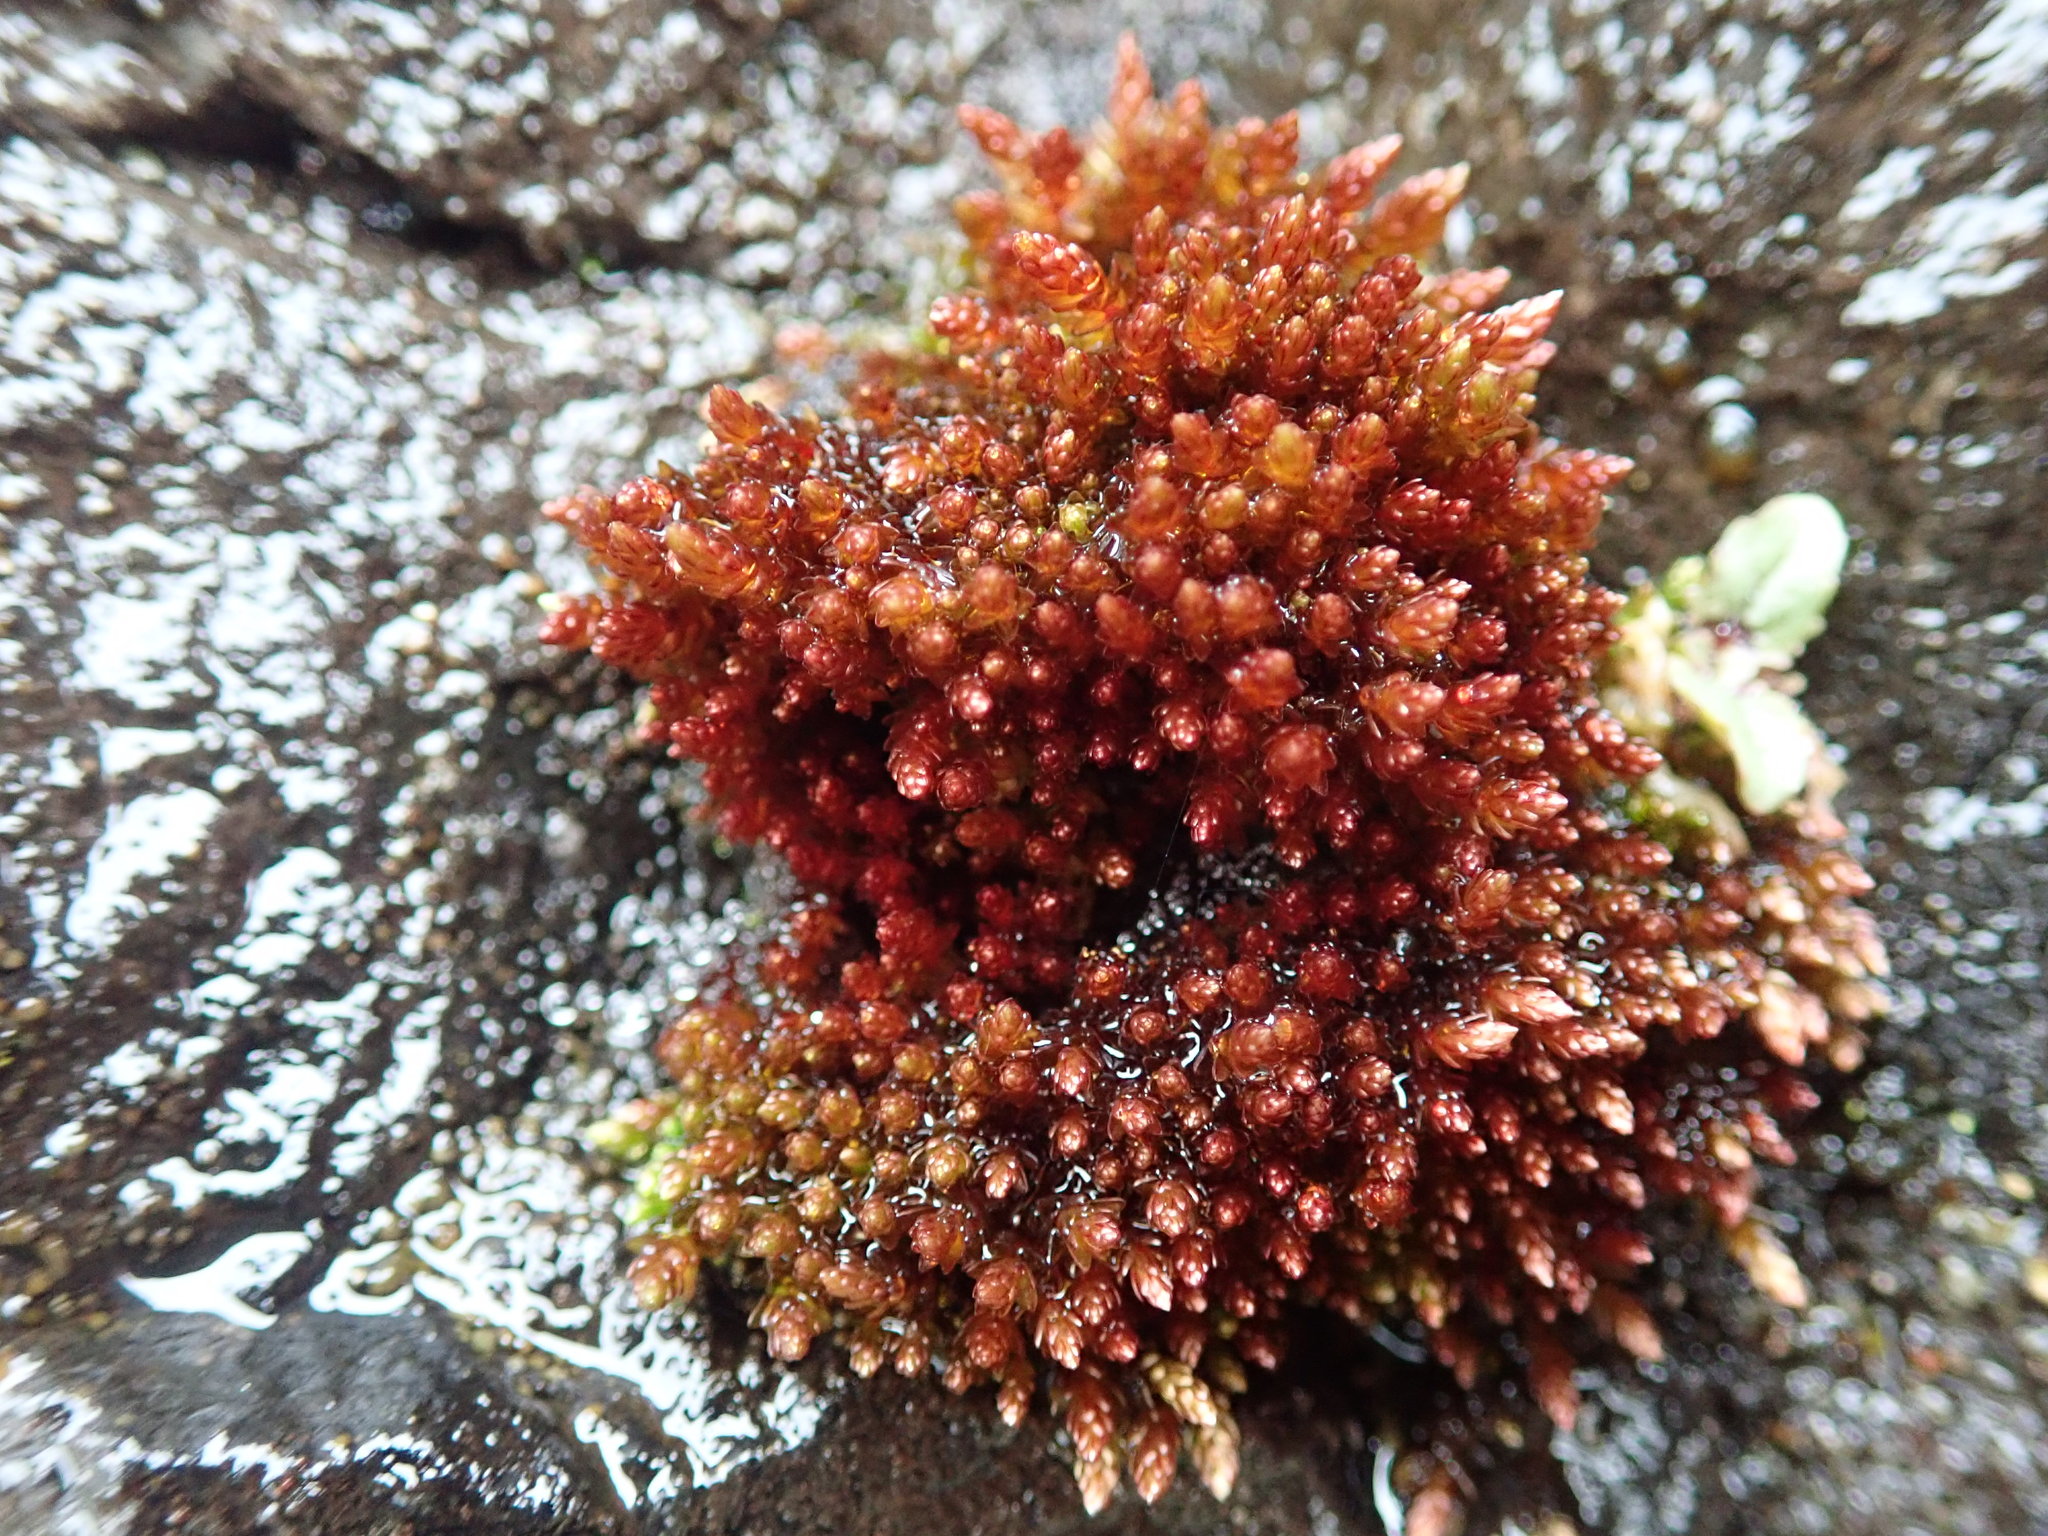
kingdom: Plantae
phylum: Bryophyta
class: Bryopsida
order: Bryales
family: Bryaceae
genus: Imbribryum
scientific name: Imbribryum miniatum
